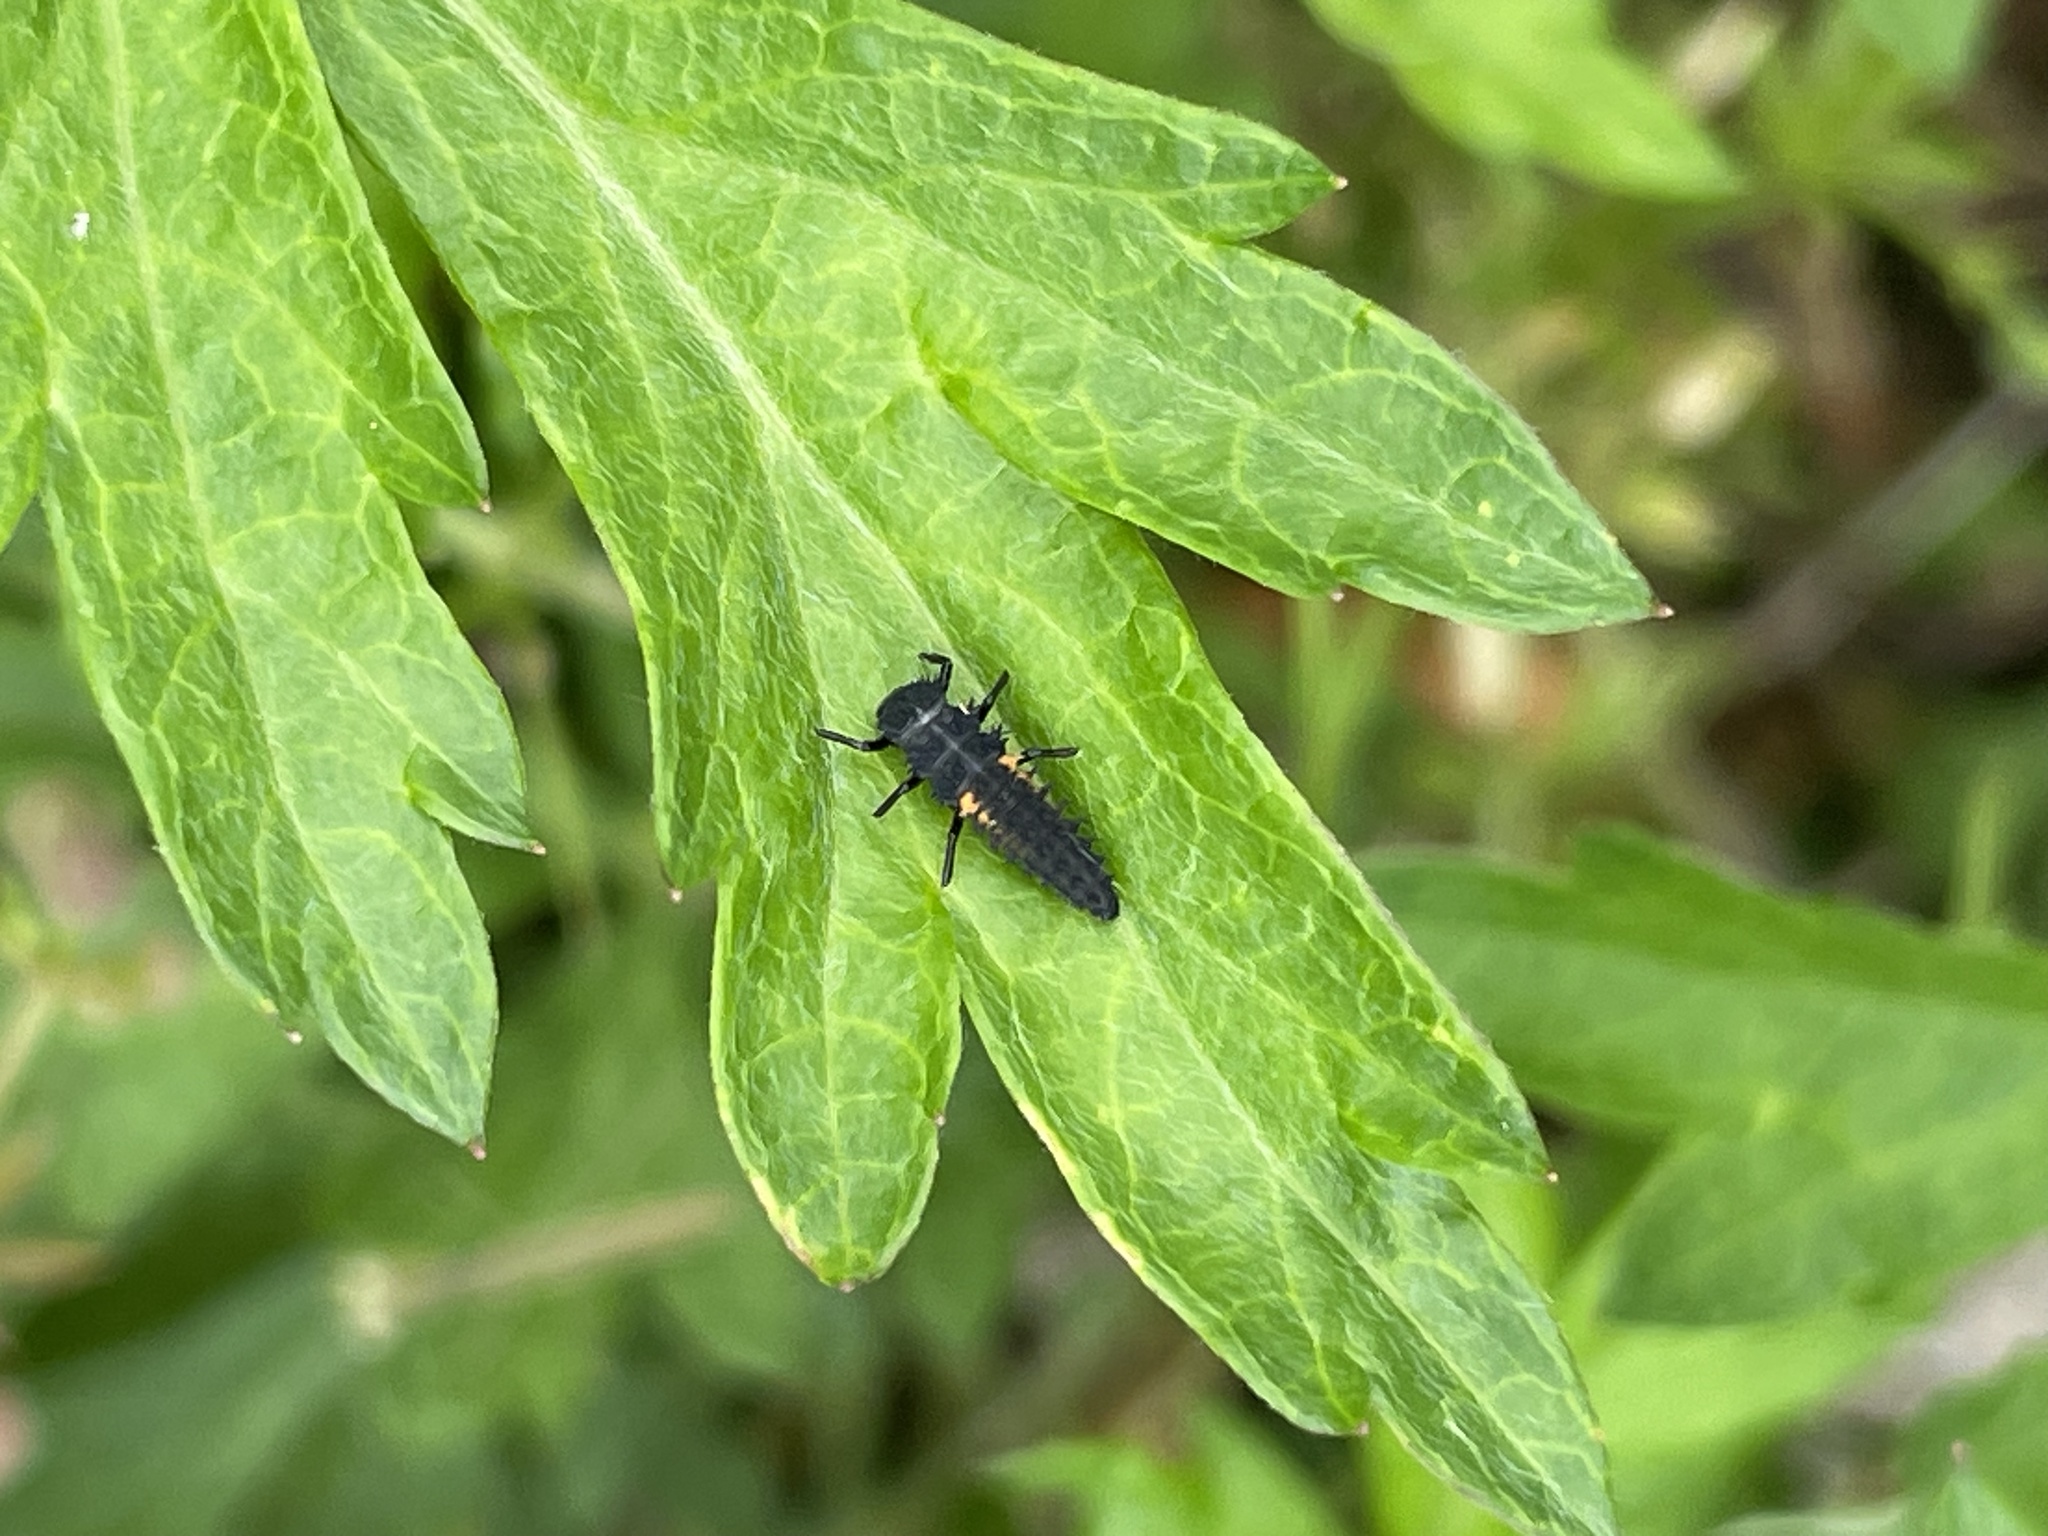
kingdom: Animalia
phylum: Arthropoda
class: Insecta
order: Coleoptera
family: Coccinellidae
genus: Harmonia
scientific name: Harmonia axyridis
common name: Harlequin ladybird
